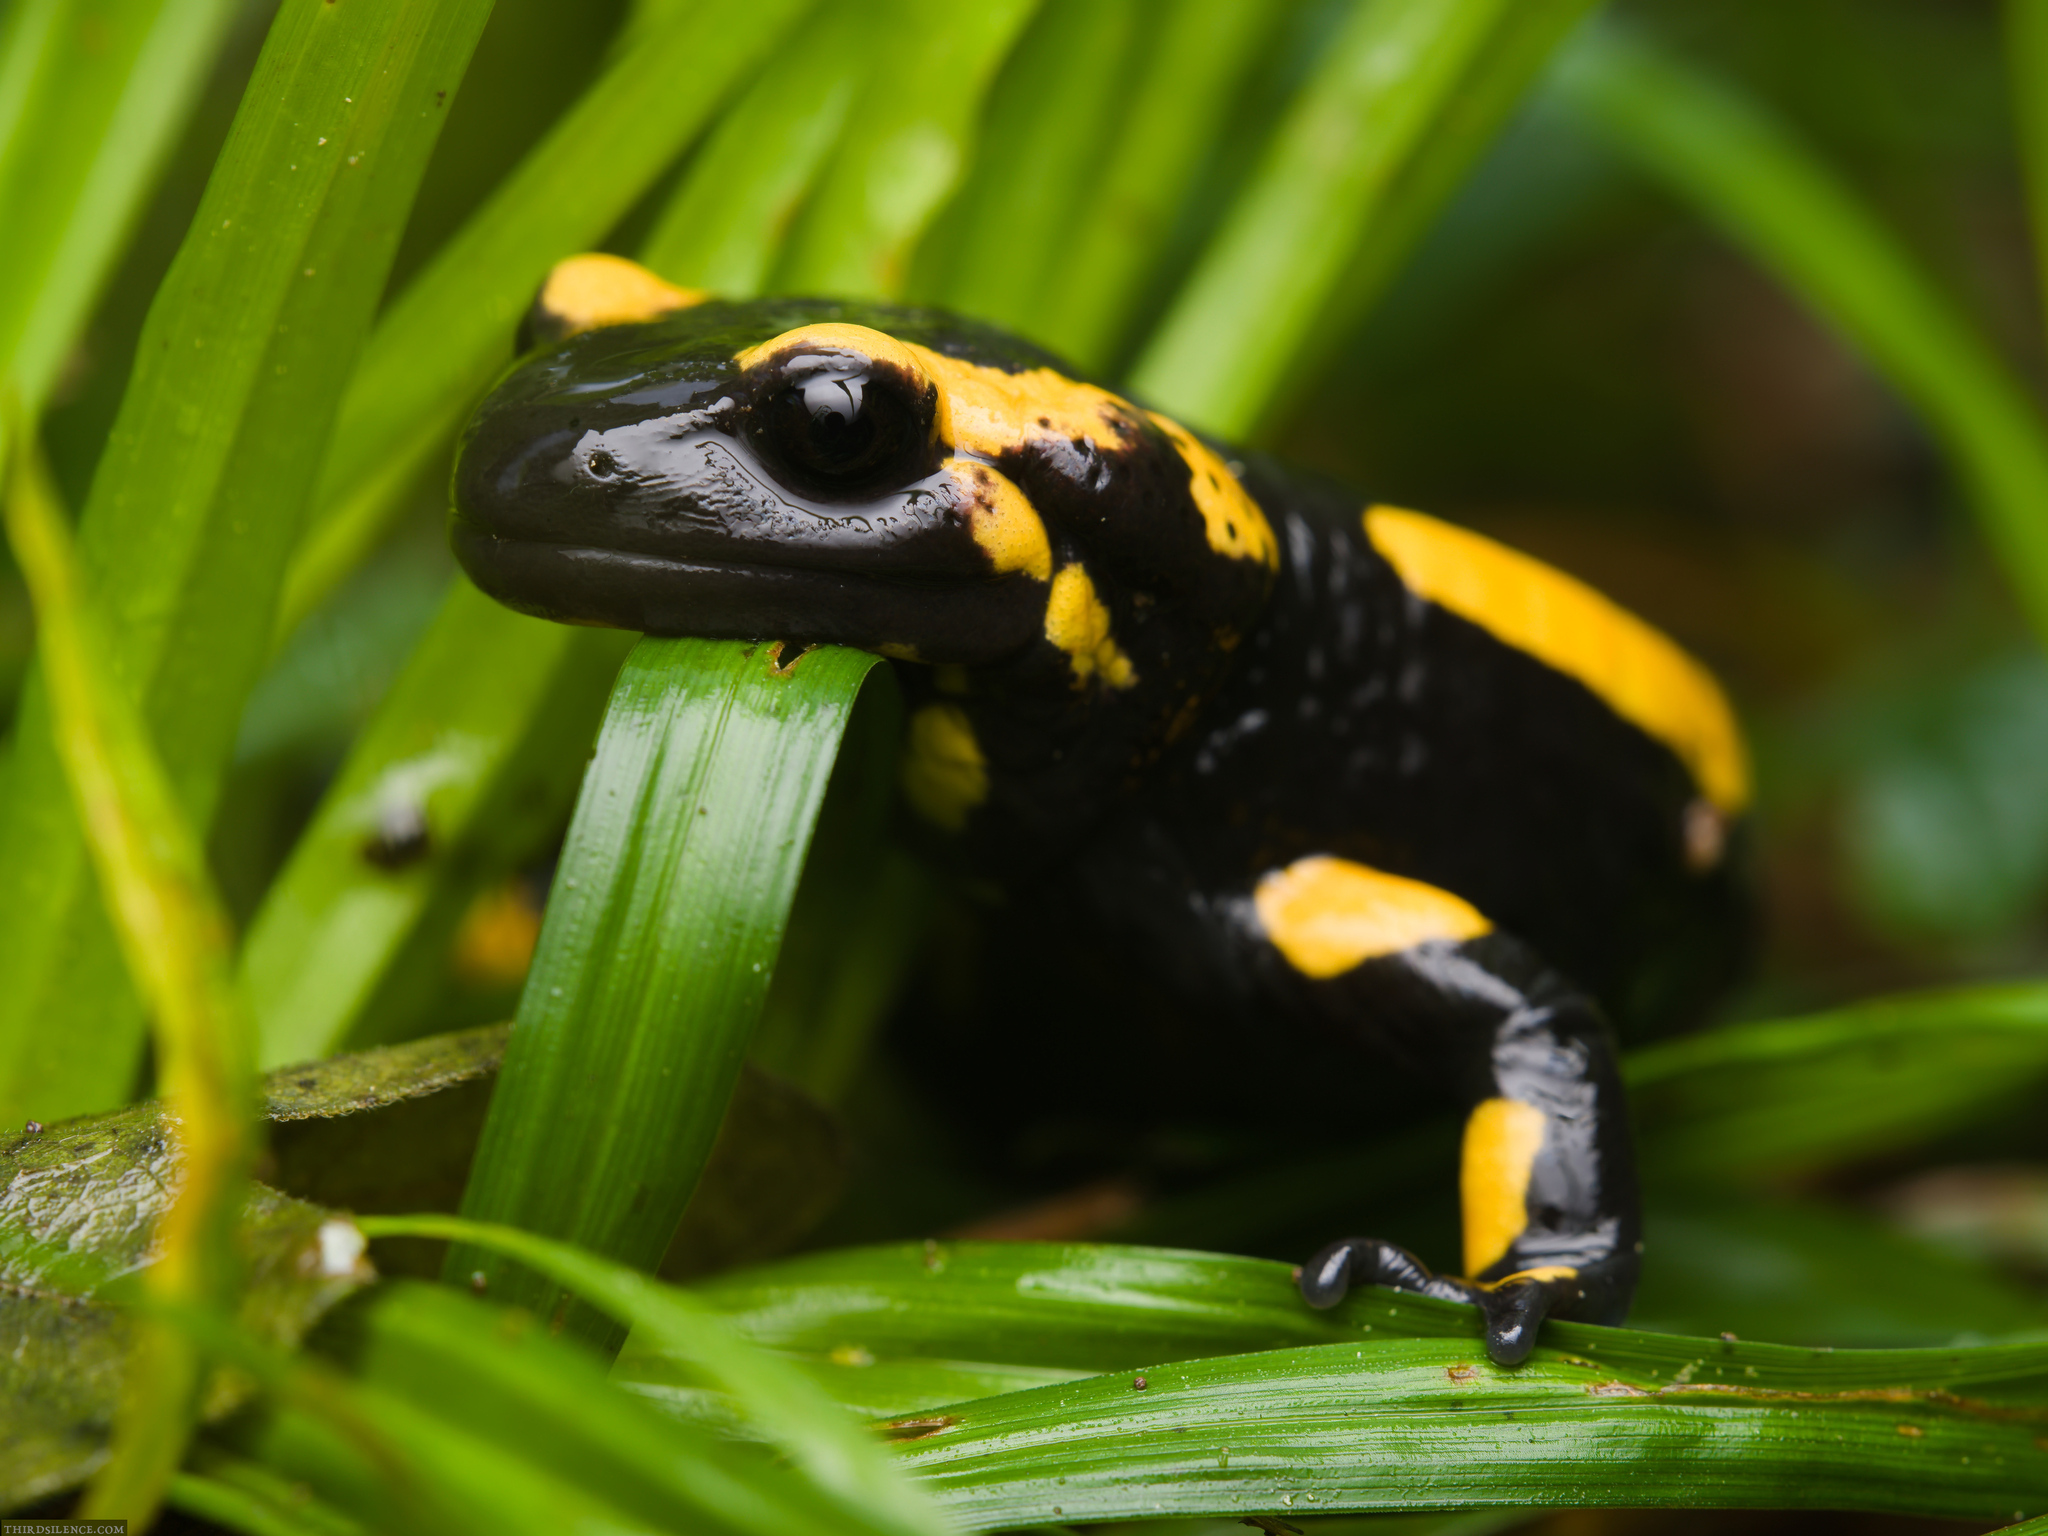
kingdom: Animalia
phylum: Chordata
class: Amphibia
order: Caudata
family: Salamandridae
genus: Salamandra
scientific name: Salamandra salamandra
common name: Fire salamander
